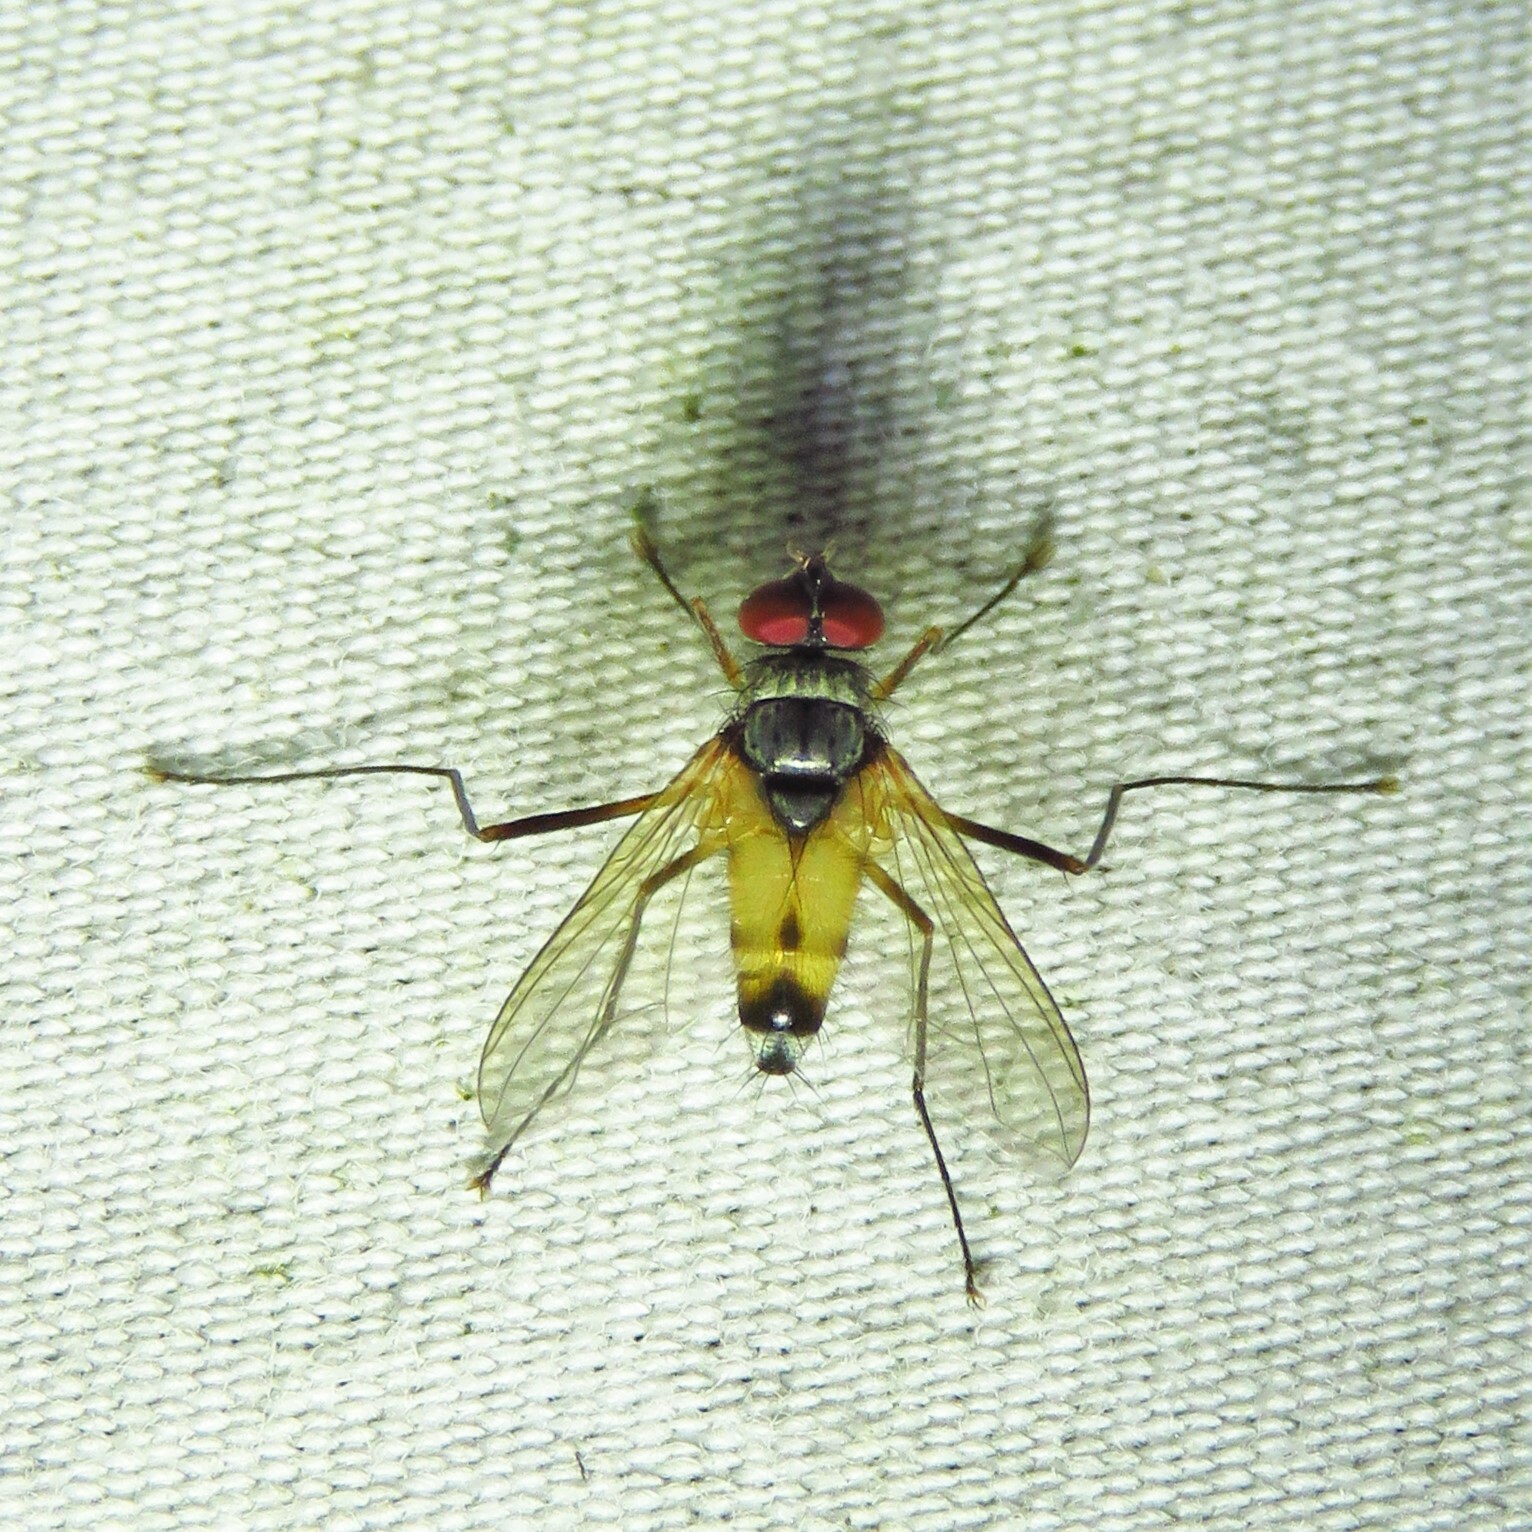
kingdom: Animalia
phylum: Arthropoda
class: Insecta
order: Diptera
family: Tachinidae
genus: Cholomyia
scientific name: Cholomyia inaequipes
